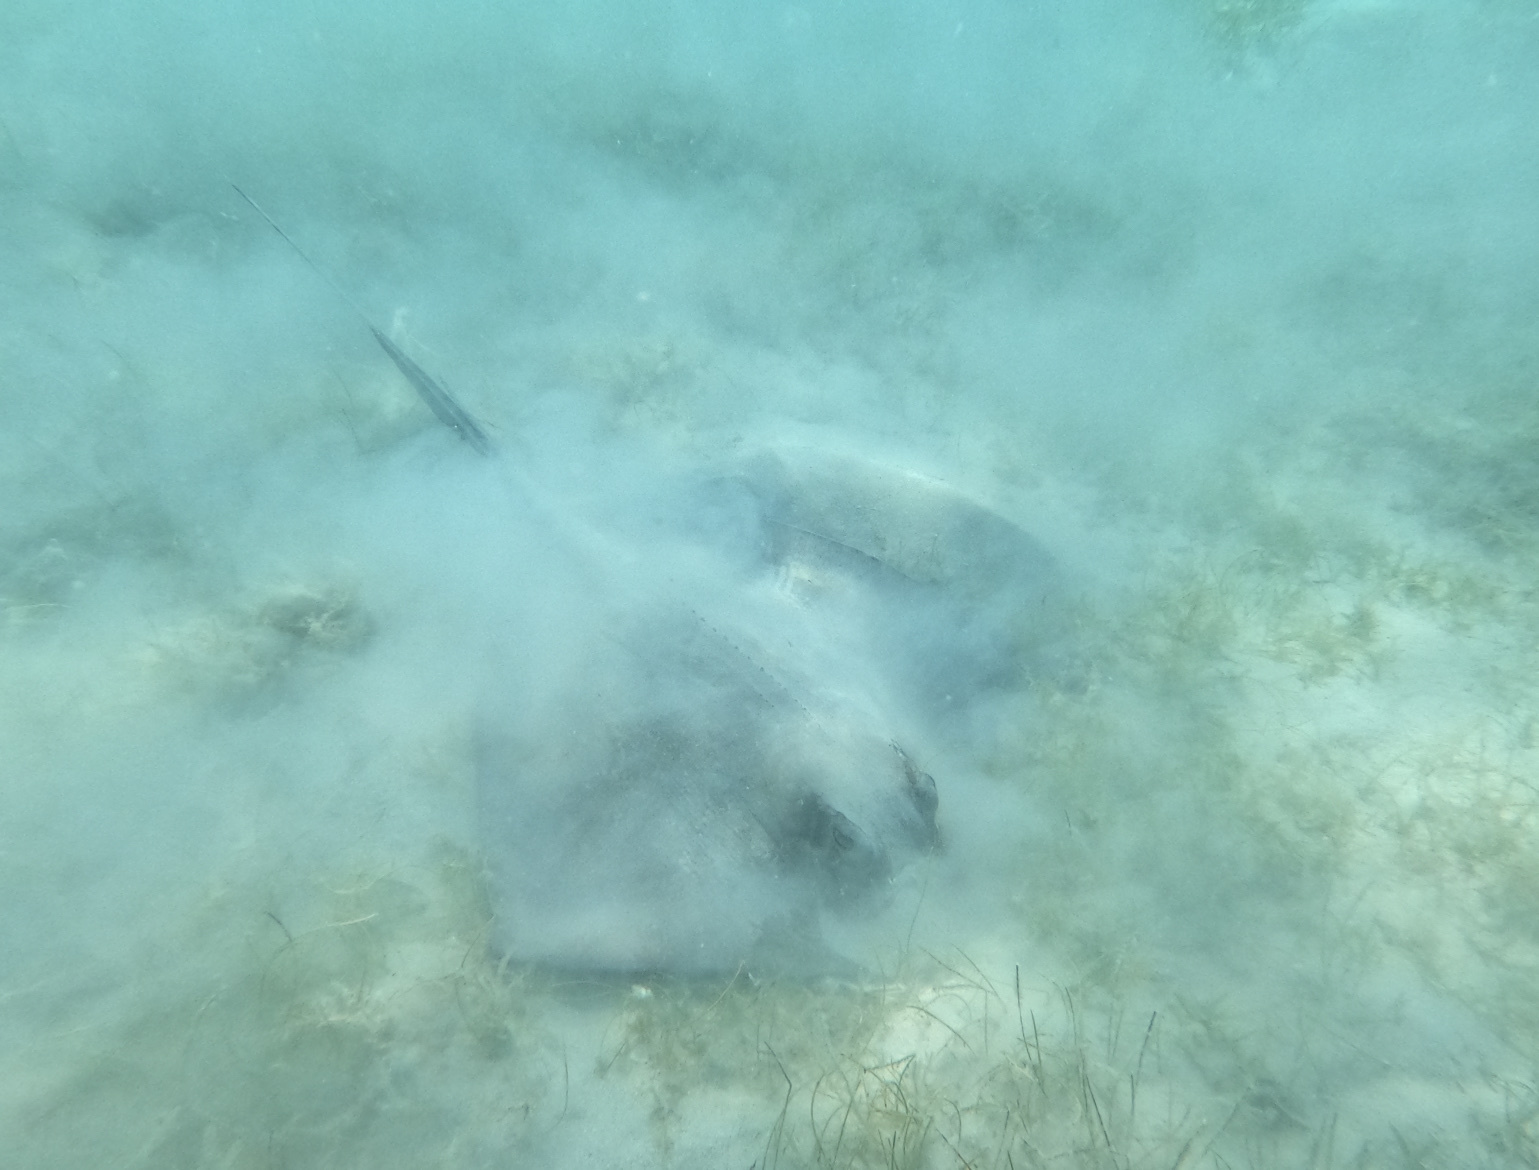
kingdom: Animalia
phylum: Chordata
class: Elasmobranchii
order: Myliobatiformes
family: Dasyatidae
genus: Hypanus
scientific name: Hypanus americanus
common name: Southern stingray
